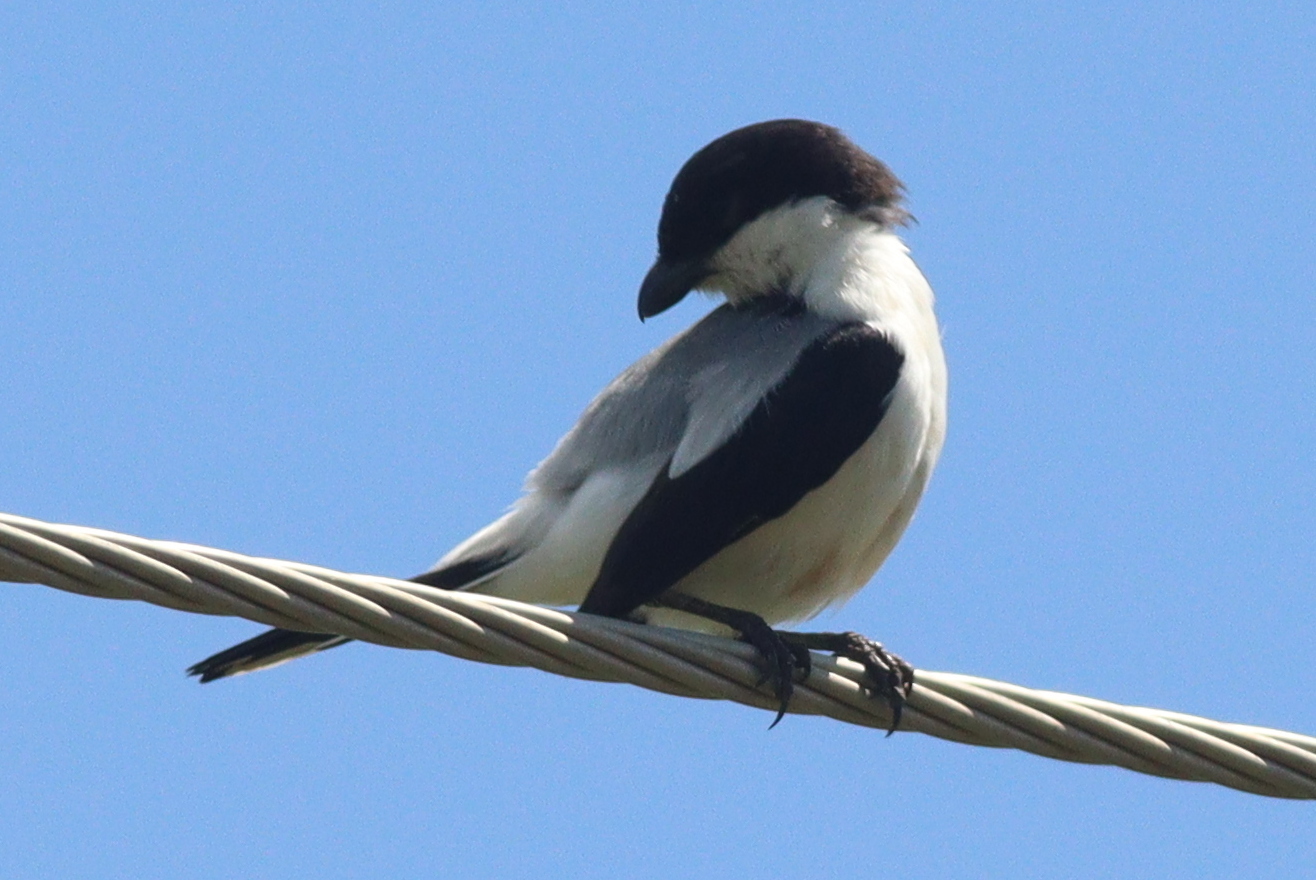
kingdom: Animalia
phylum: Chordata
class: Aves
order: Passeriformes
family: Laniidae
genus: Lanius
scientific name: Lanius dorsalis
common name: Taita fiscal
